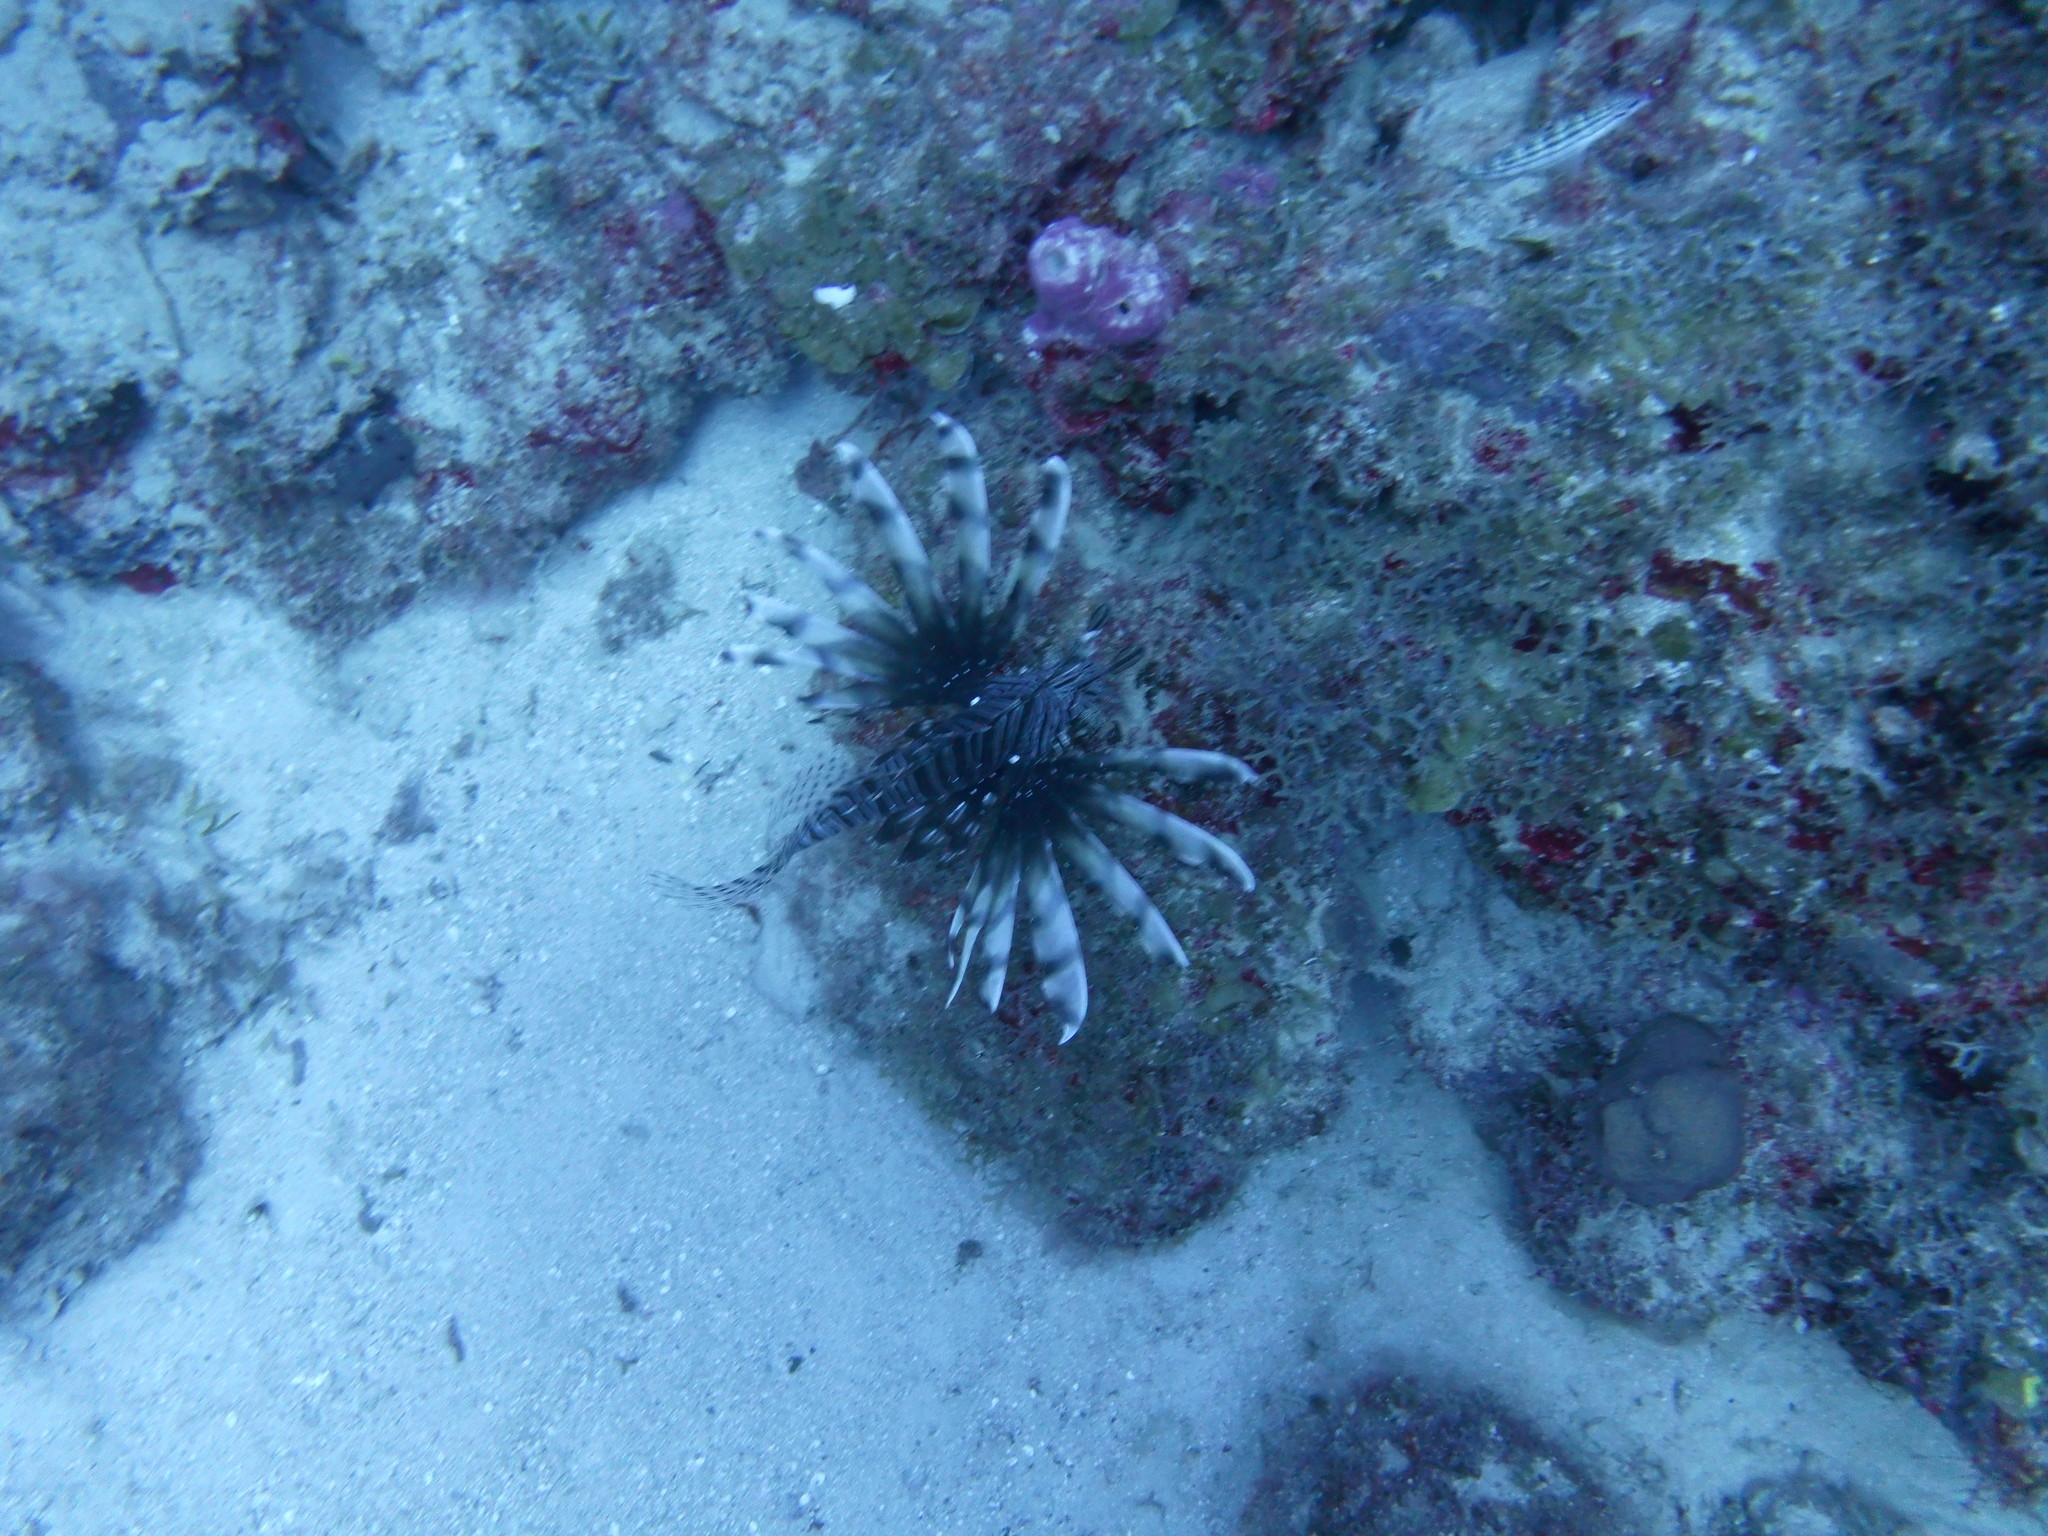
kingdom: Animalia
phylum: Chordata
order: Scorpaeniformes
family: Scorpaenidae
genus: Pterois
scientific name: Pterois volitans
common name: Lionfish
